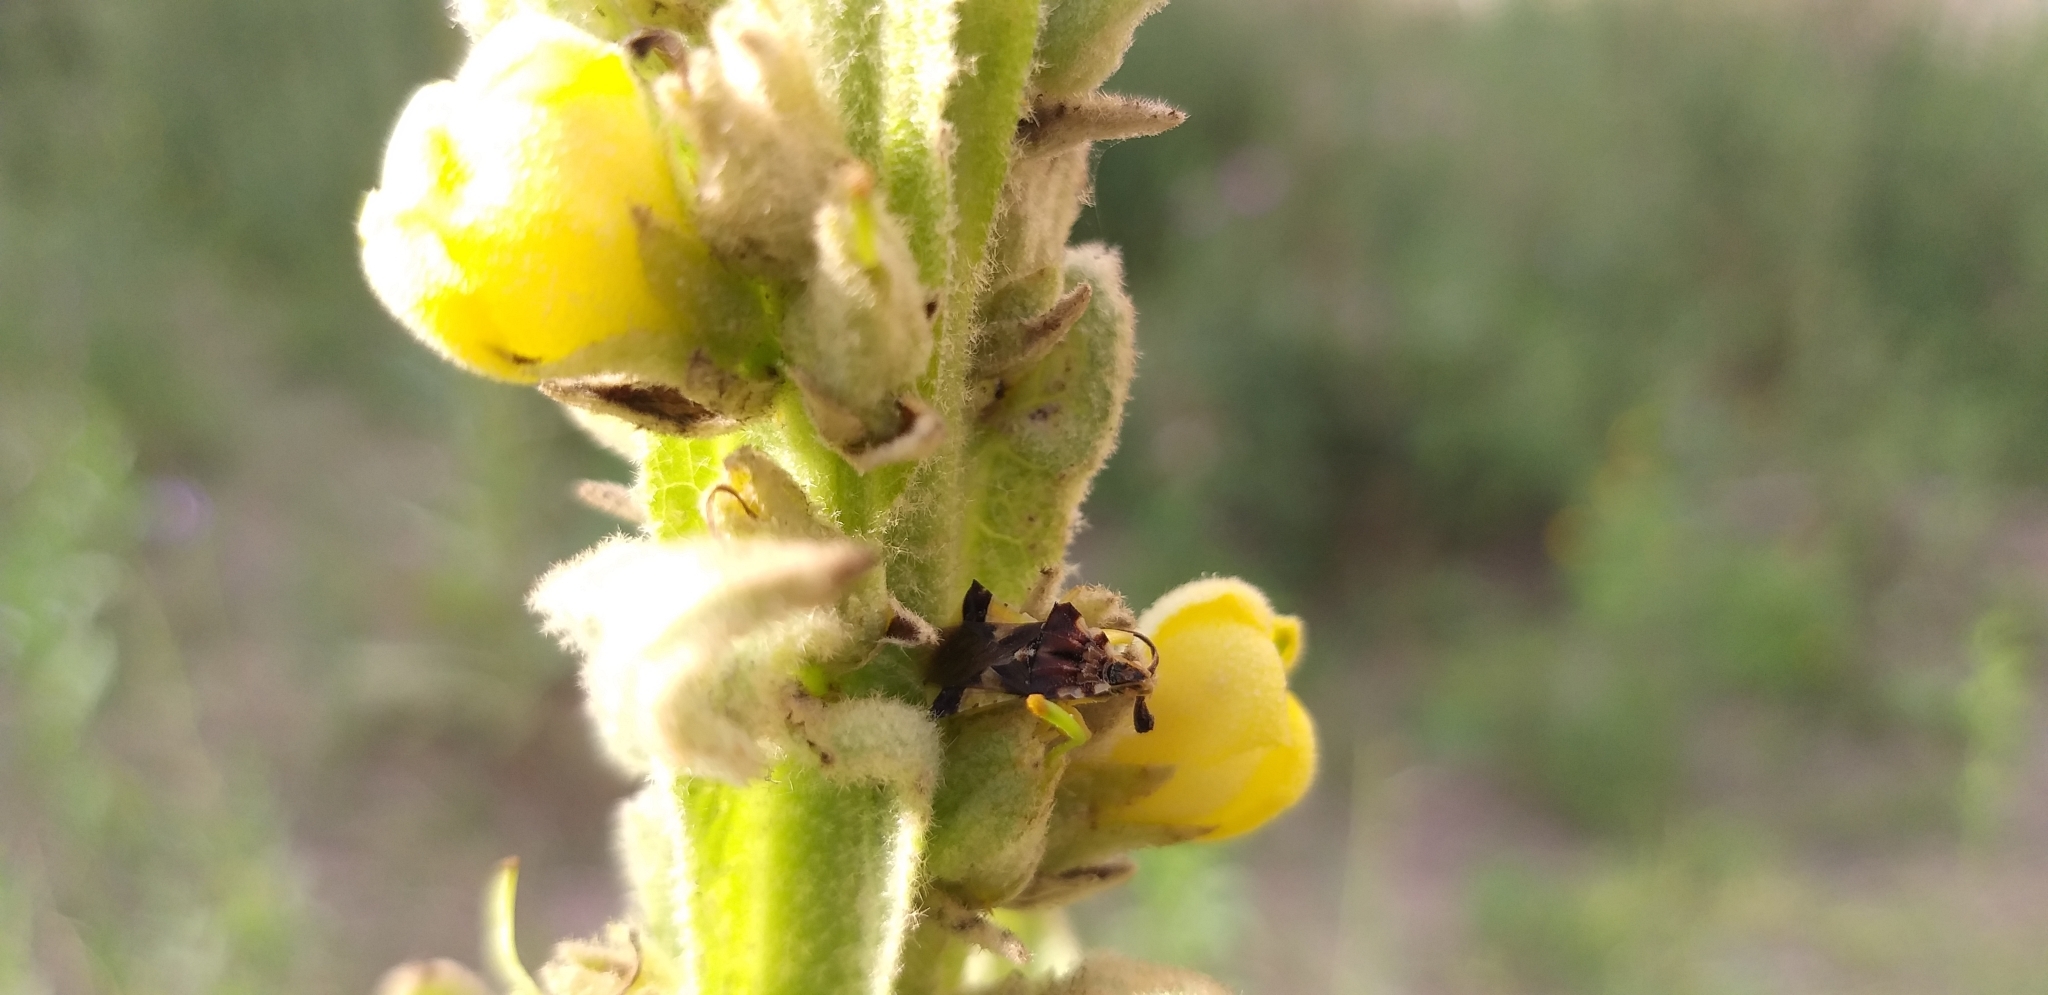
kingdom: Animalia
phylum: Arthropoda
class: Insecta
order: Hemiptera
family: Reduviidae
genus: Phymata
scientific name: Phymata americana
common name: Jagged ambush bug
